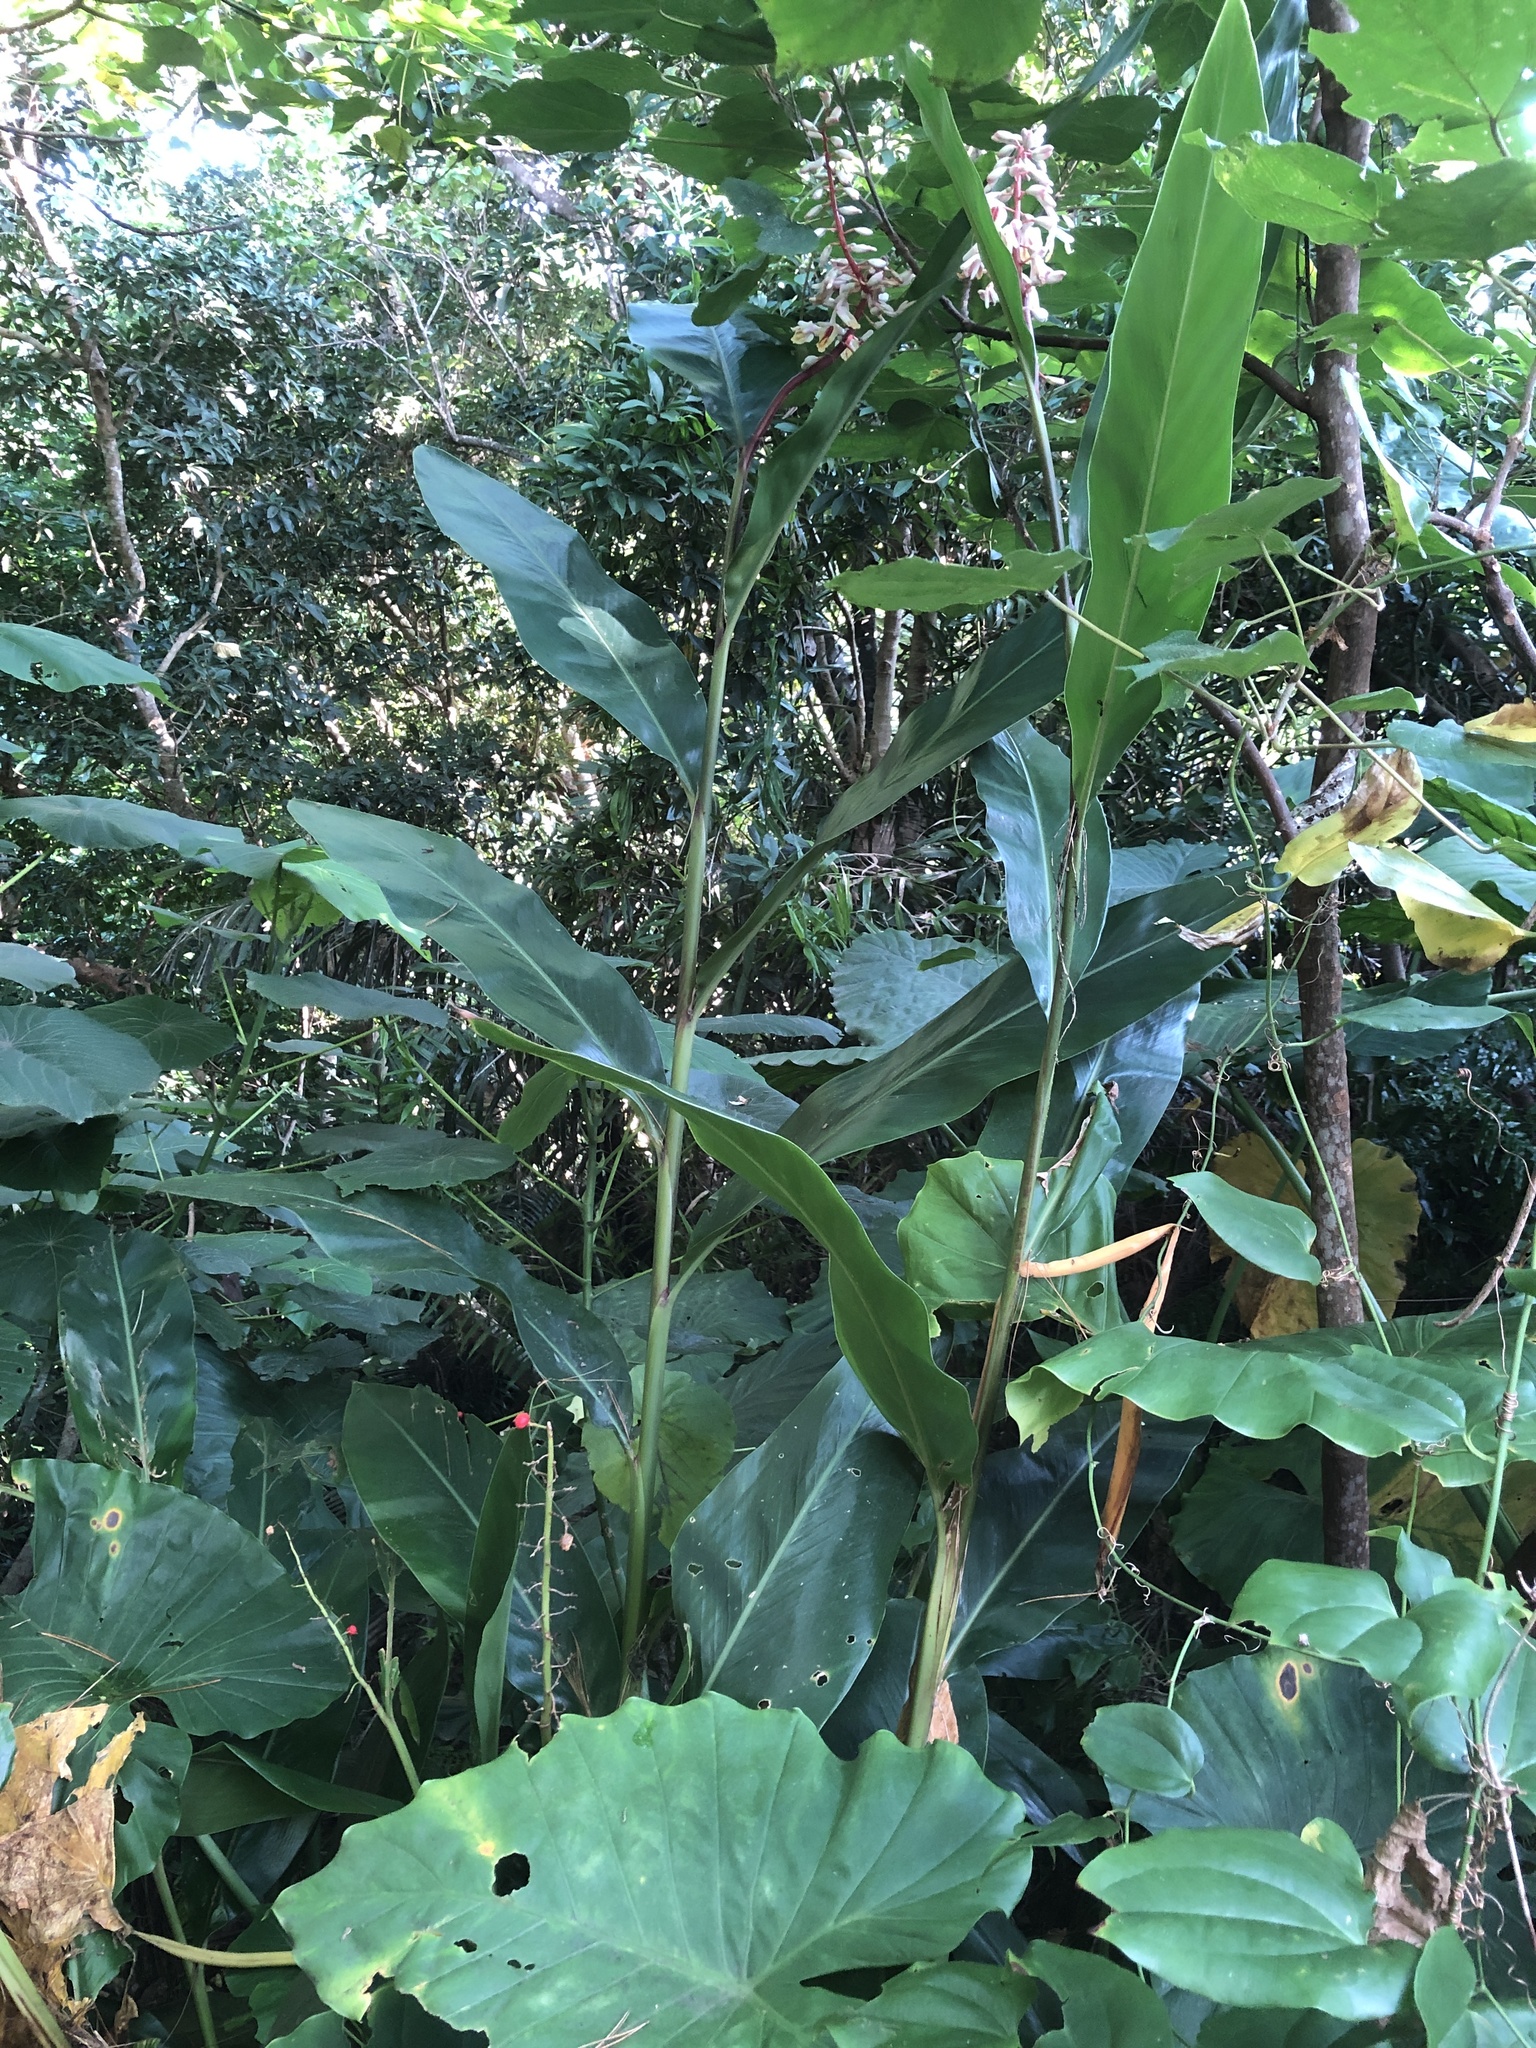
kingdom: Plantae
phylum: Tracheophyta
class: Liliopsida
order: Zingiberales
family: Zingiberaceae
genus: Alpinia
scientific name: Alpinia formosana
